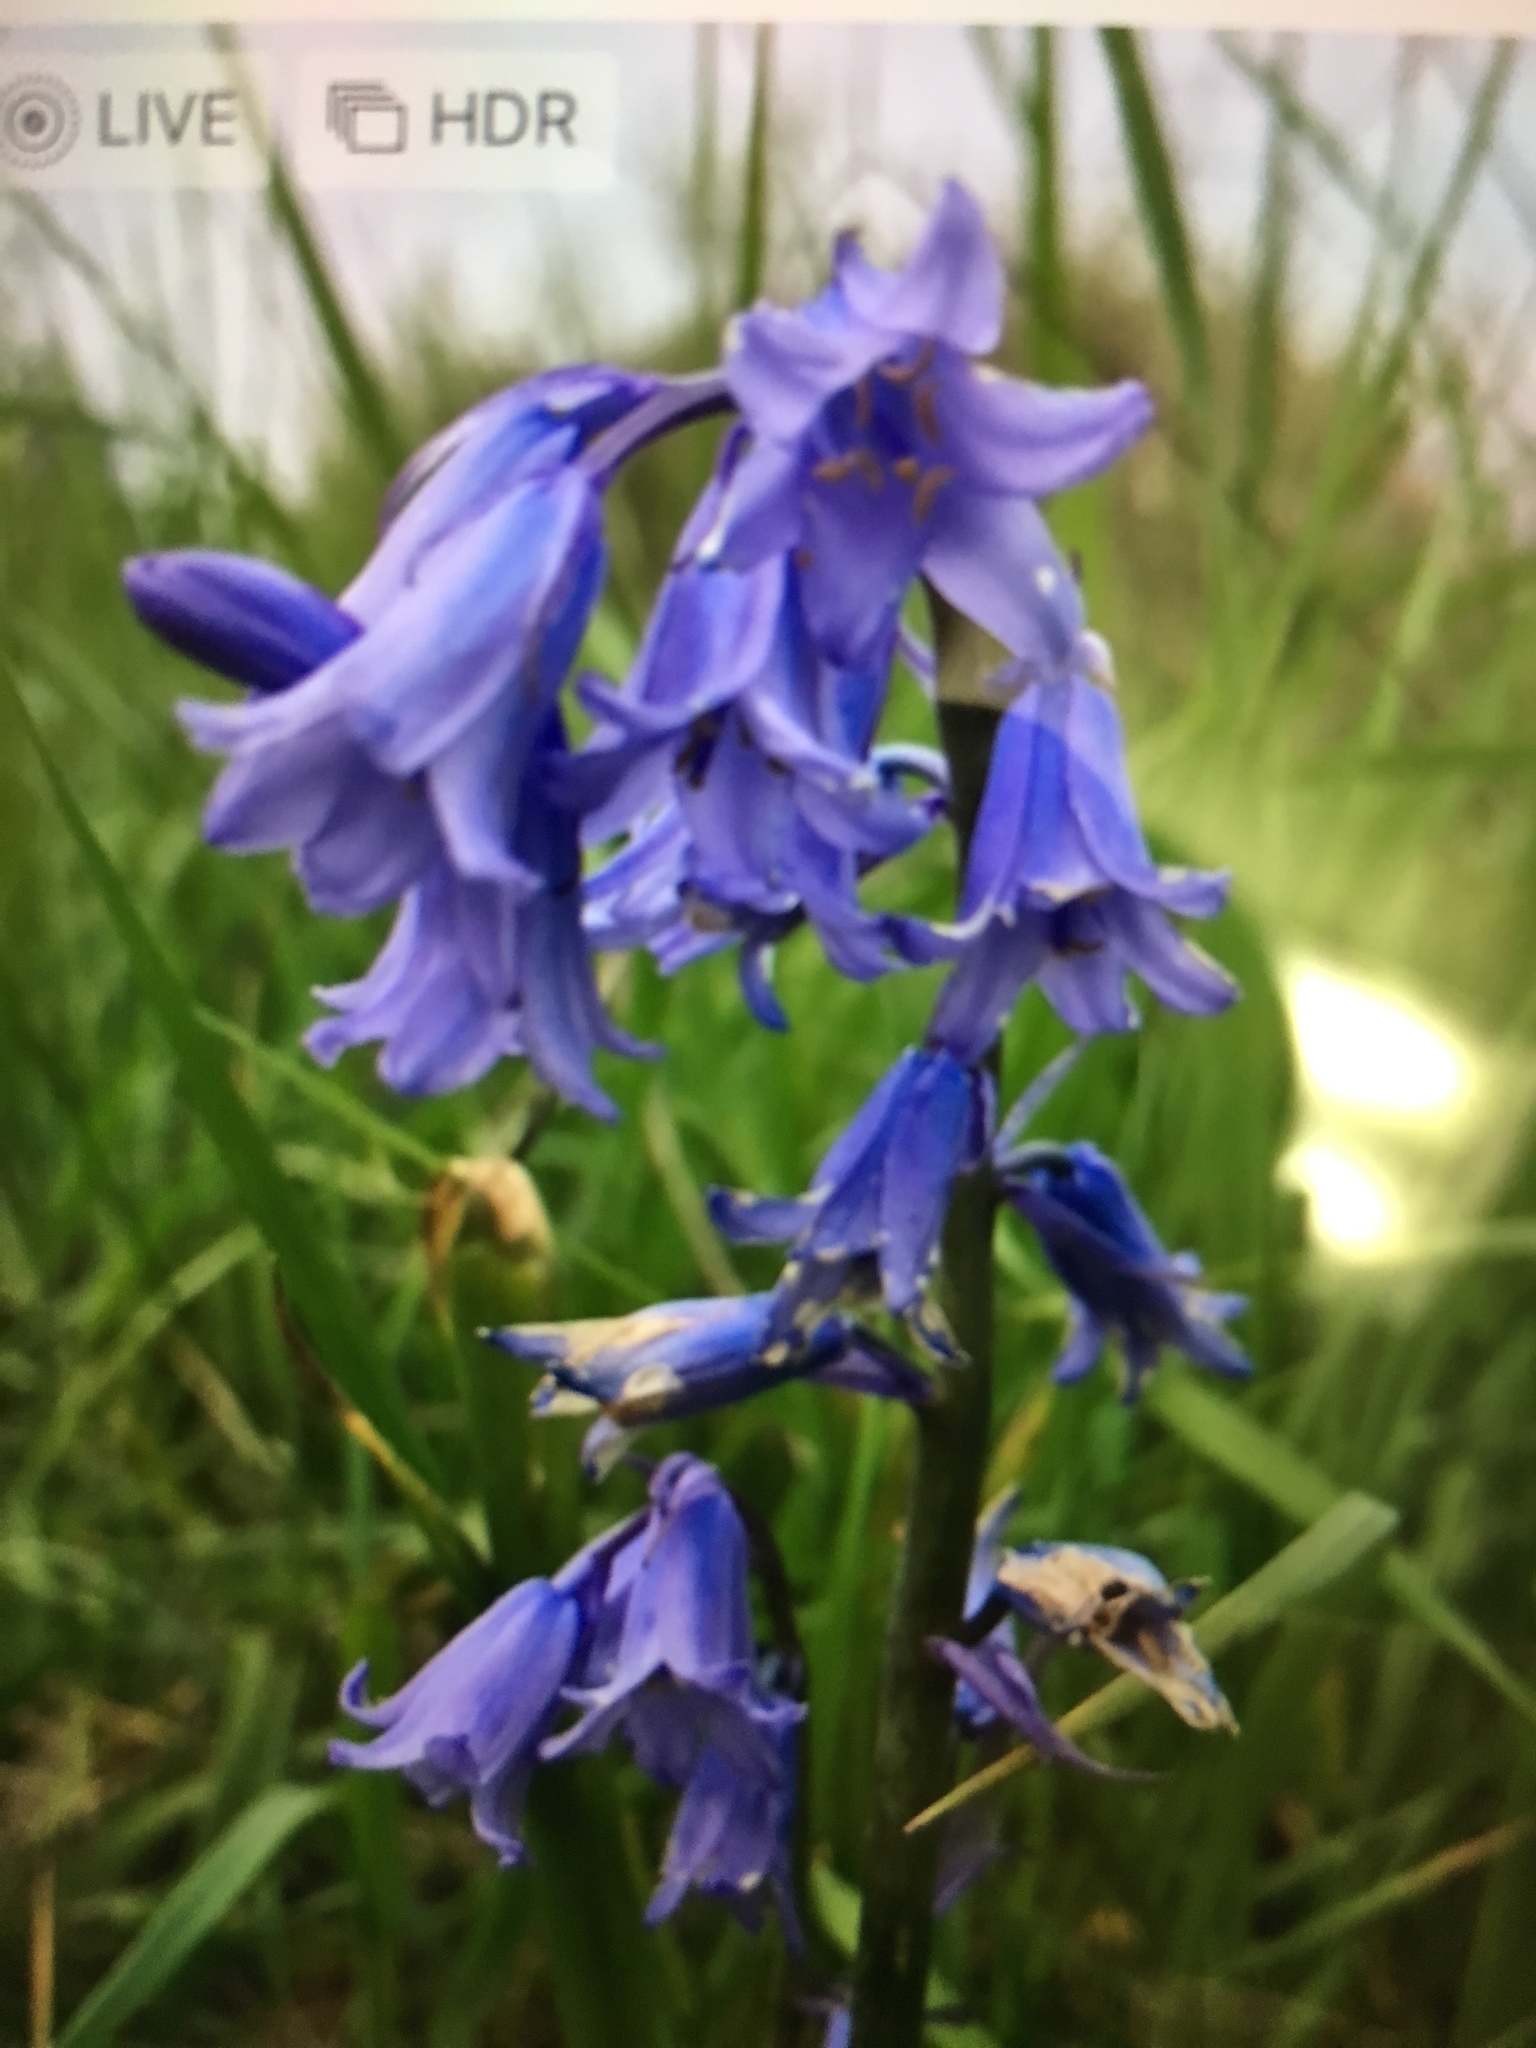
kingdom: Plantae
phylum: Tracheophyta
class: Liliopsida
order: Asparagales
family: Asparagaceae
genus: Hyacinthoides
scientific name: Hyacinthoides non-scripta
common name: Bluebell
